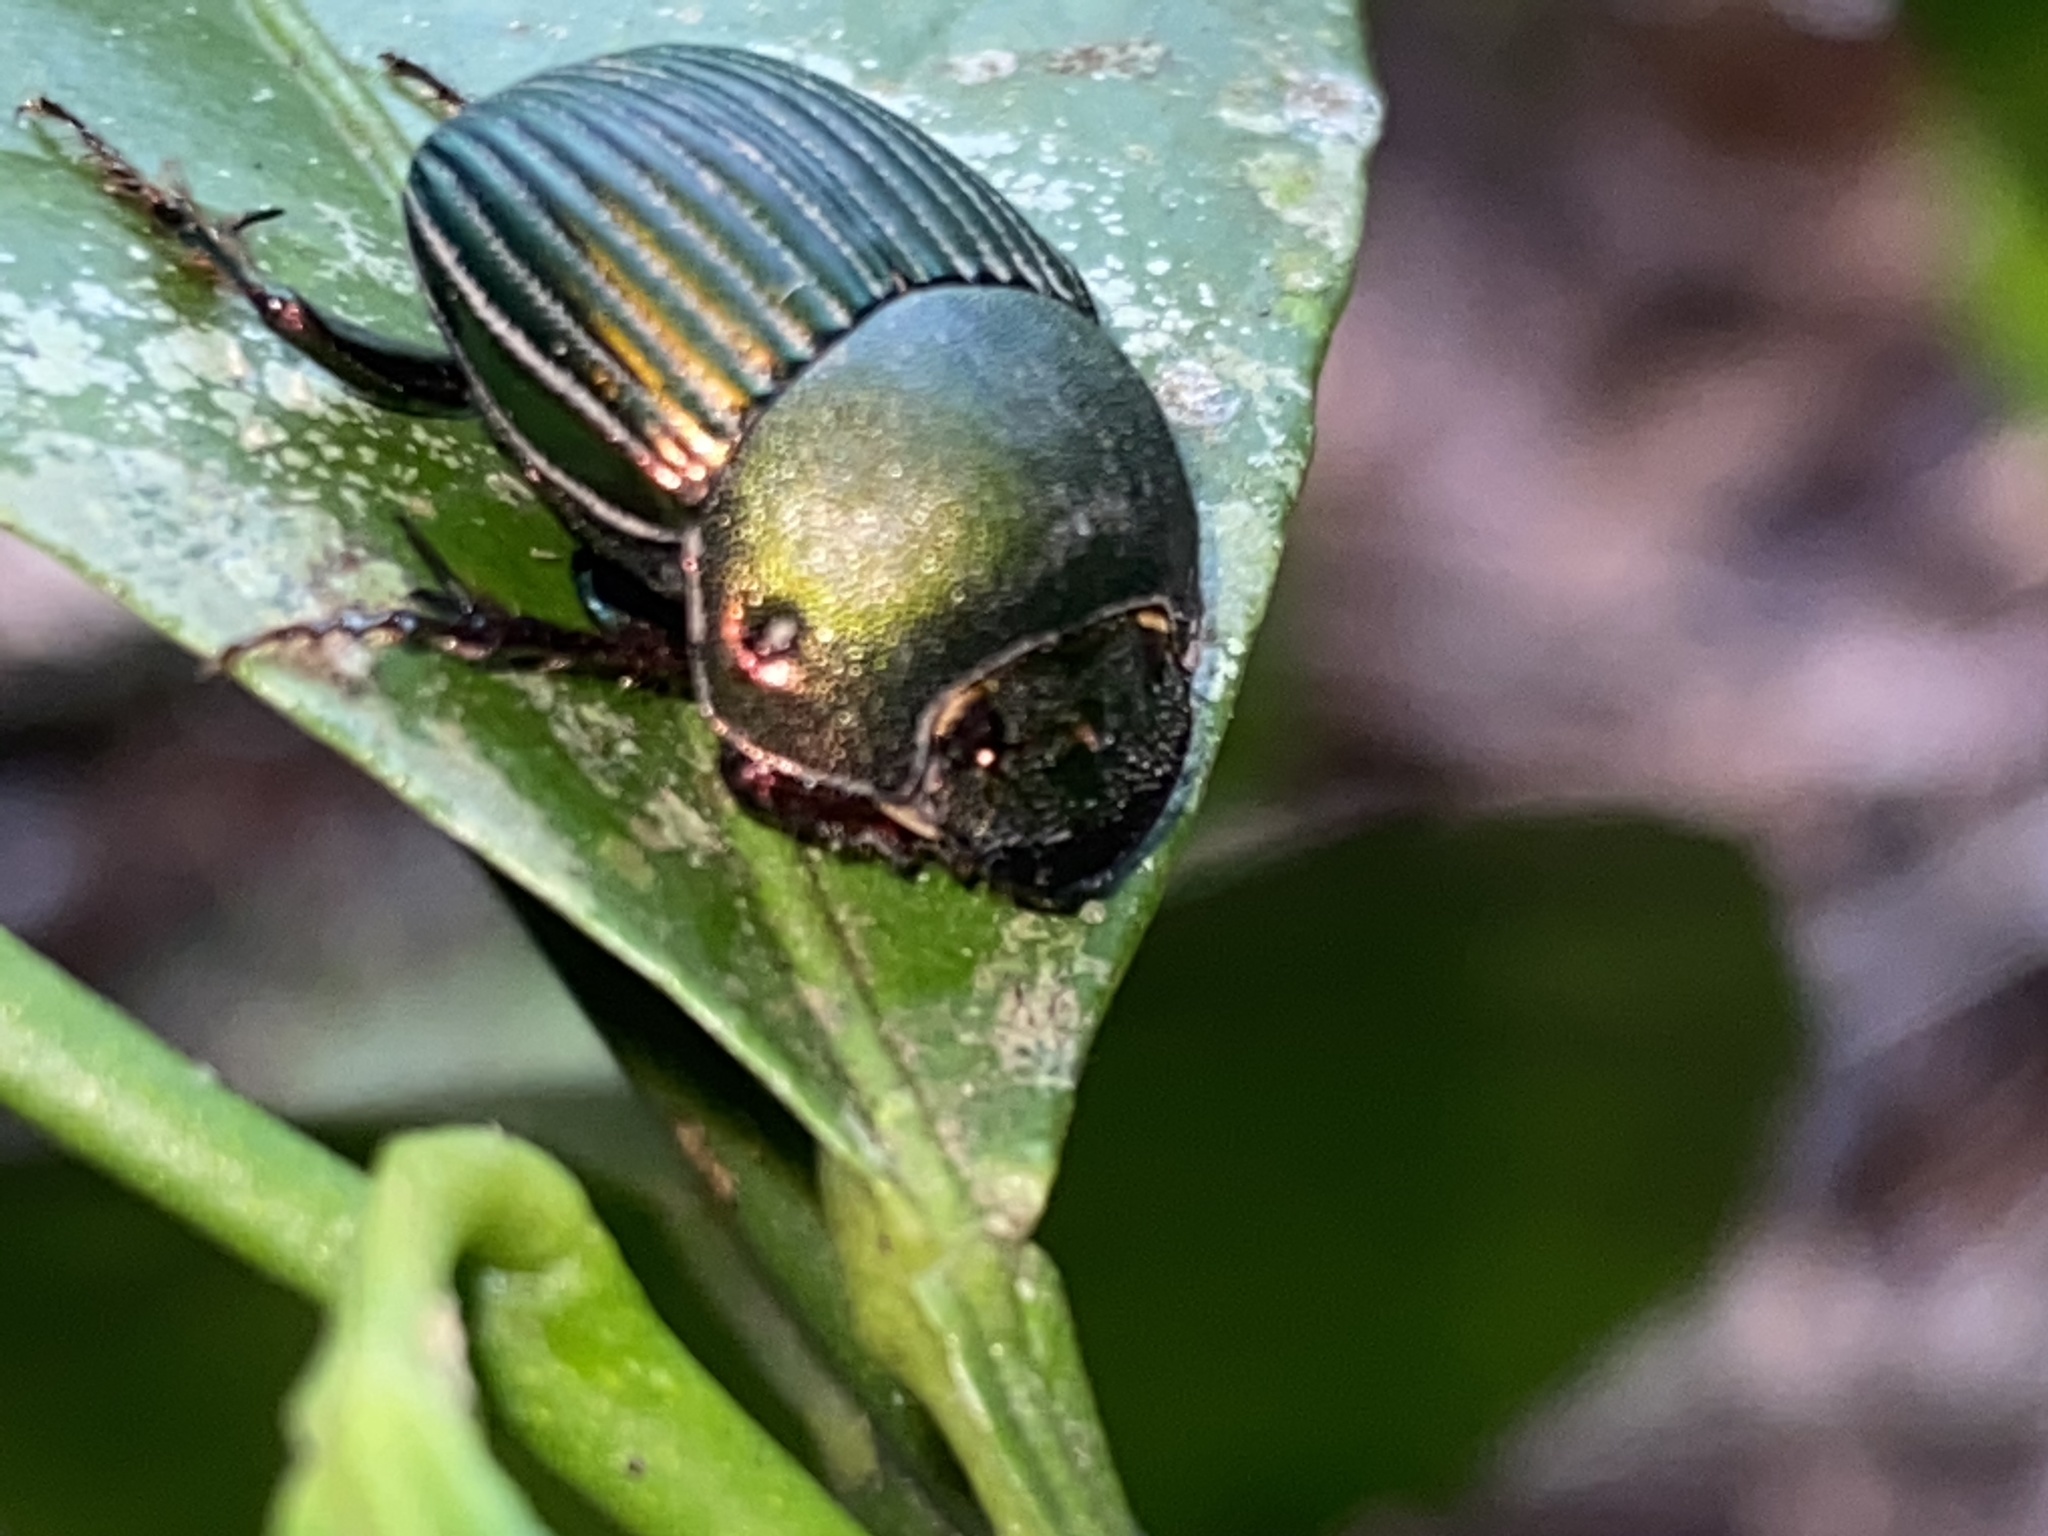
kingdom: Animalia
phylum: Arthropoda
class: Insecta
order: Coleoptera
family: Scarabaeidae
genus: Chalcocopris
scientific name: Chalcocopris hesperus
